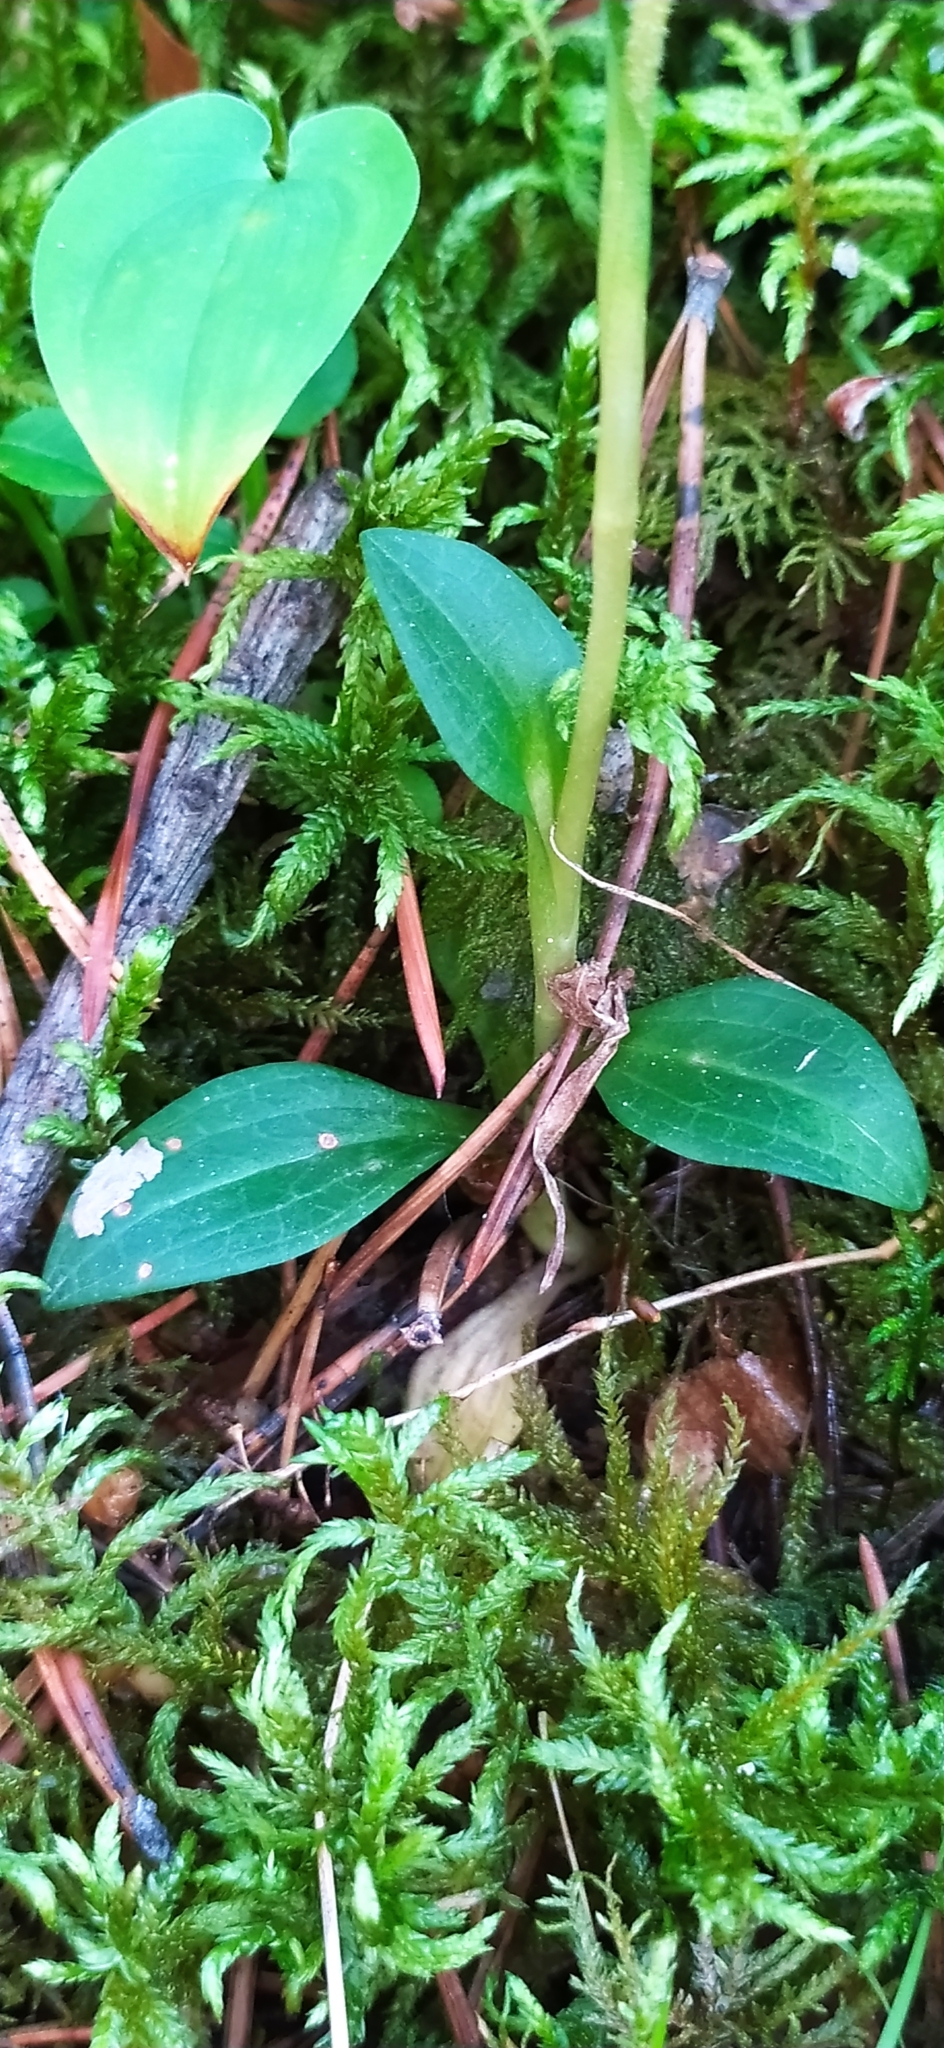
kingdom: Plantae
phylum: Tracheophyta
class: Liliopsida
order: Asparagales
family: Orchidaceae
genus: Goodyera
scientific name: Goodyera repens
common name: Creeping lady's-tresses
